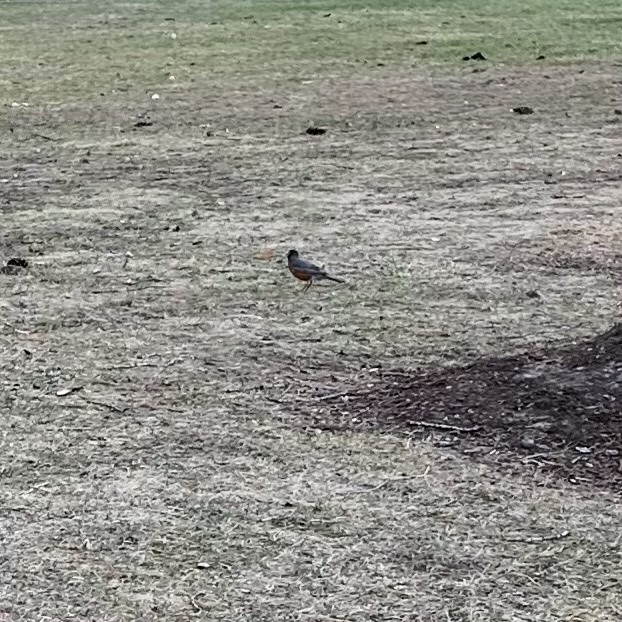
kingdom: Animalia
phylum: Chordata
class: Aves
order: Passeriformes
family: Turdidae
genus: Turdus
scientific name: Turdus migratorius
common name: American robin
